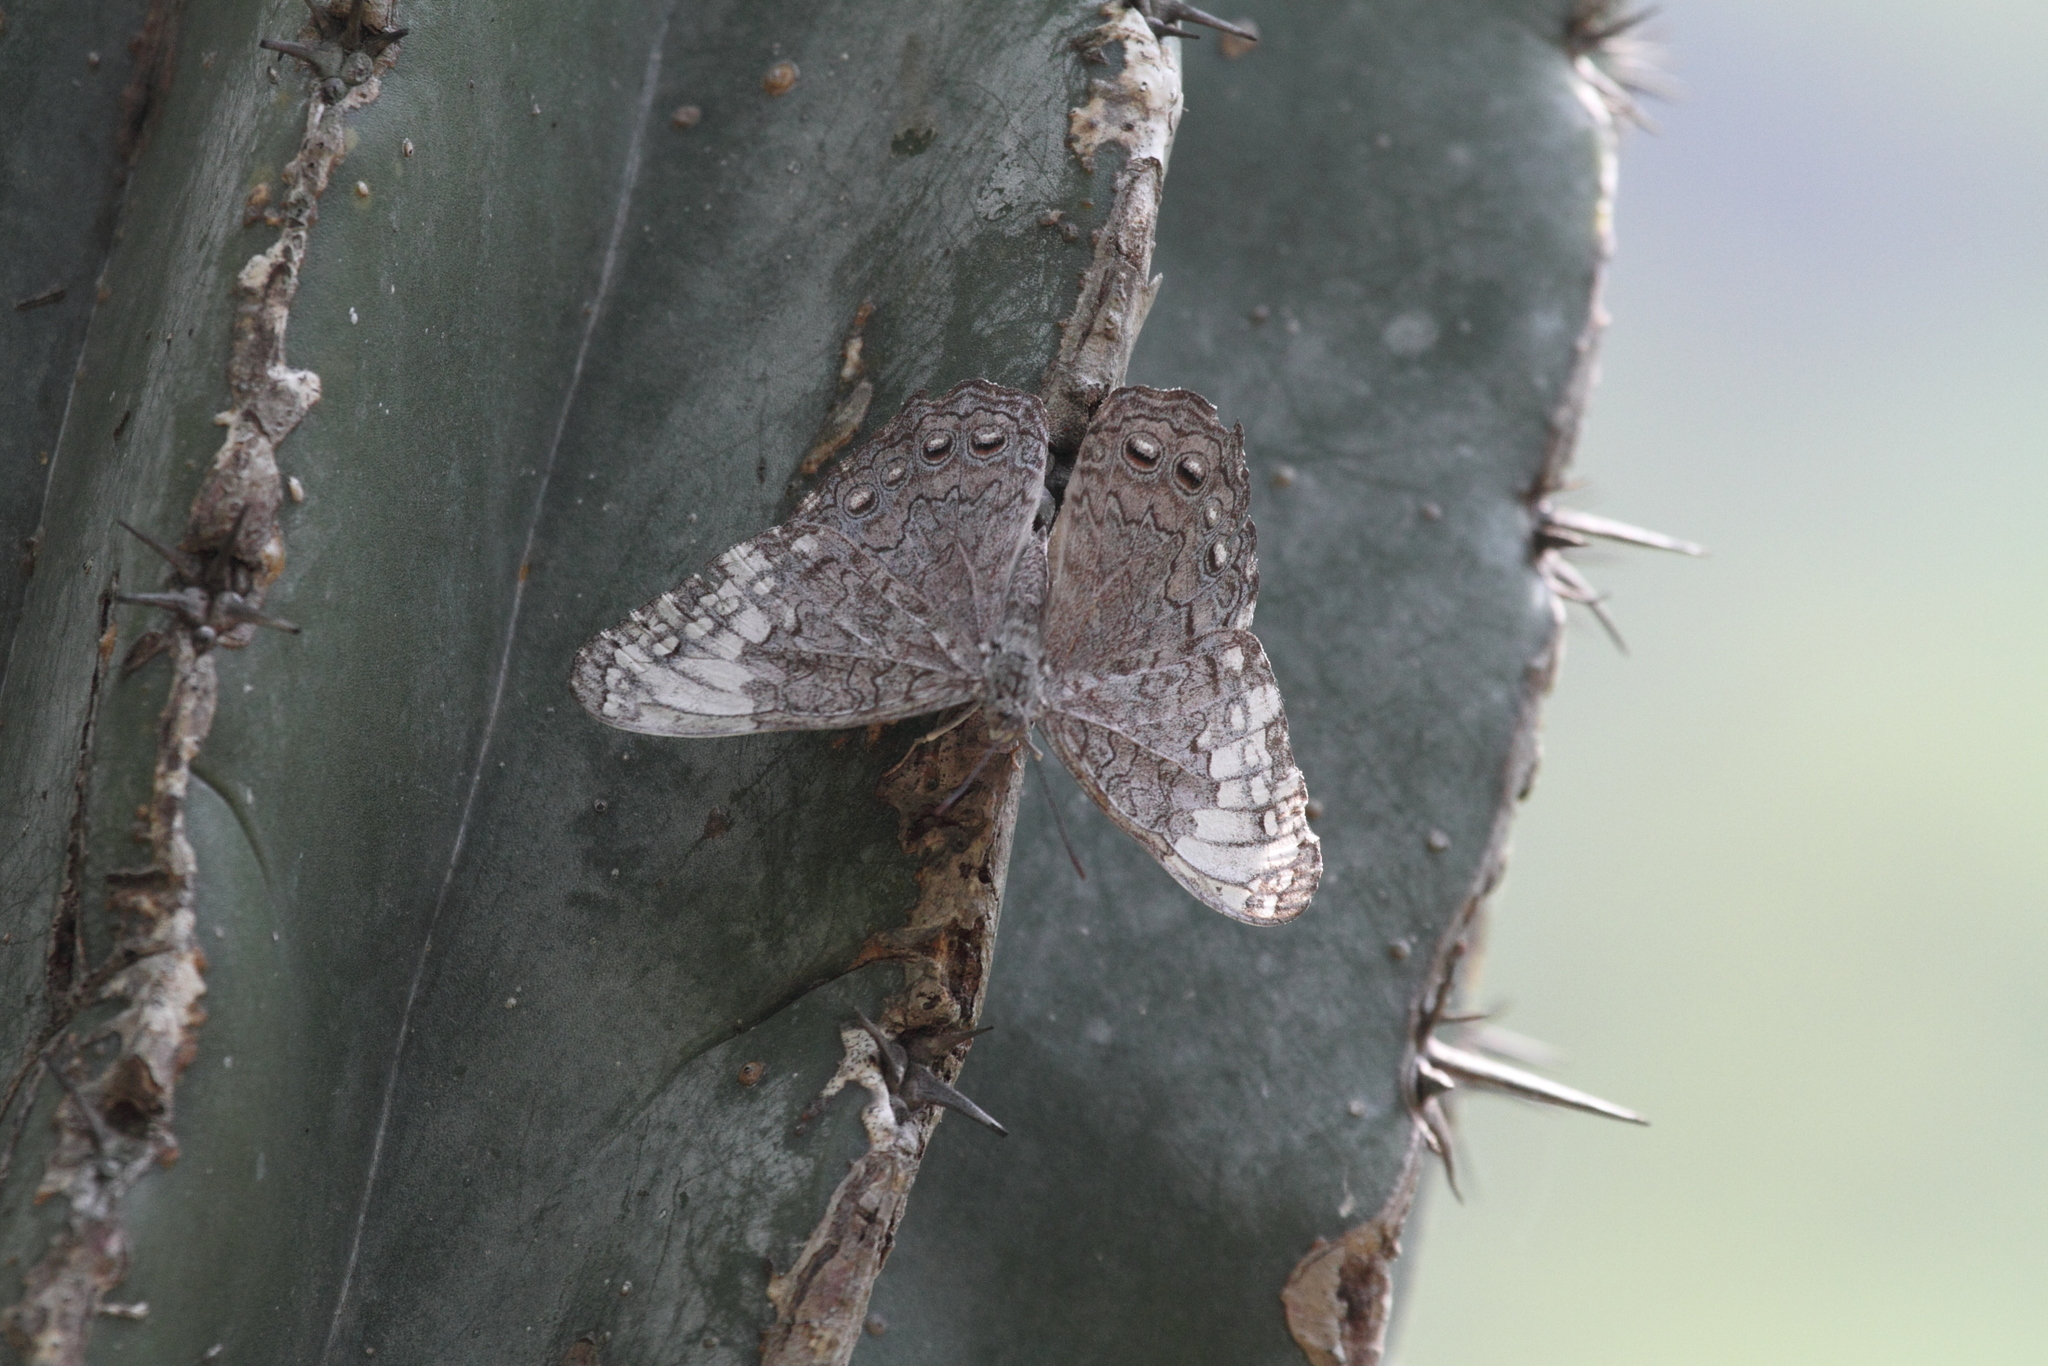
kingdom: Animalia
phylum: Arthropoda
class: Insecta
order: Lepidoptera
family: Nymphalidae
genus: Hamadryas
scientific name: Hamadryas glauconome
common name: Glaucous cracker
